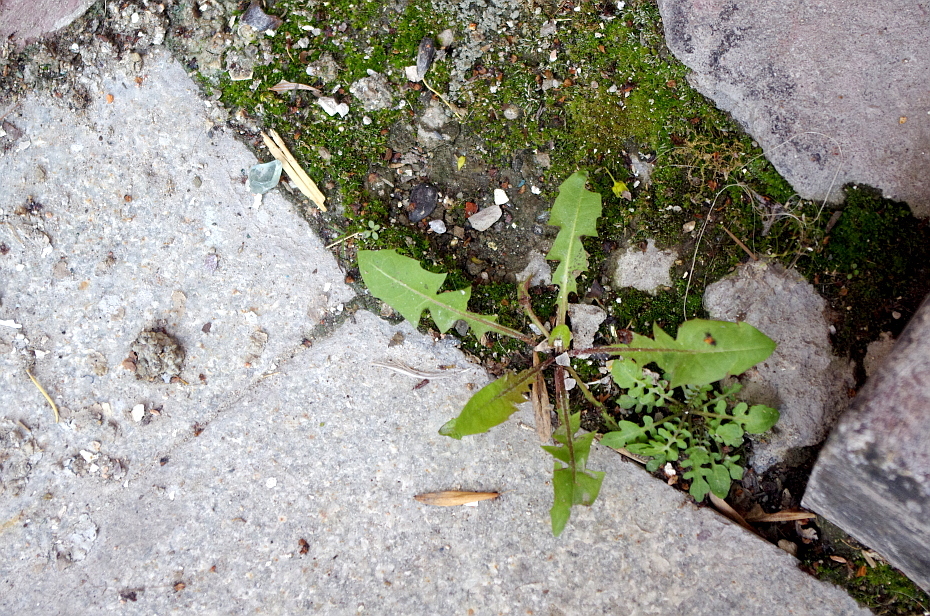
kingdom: Plantae
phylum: Tracheophyta
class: Magnoliopsida
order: Asterales
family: Asteraceae
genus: Taraxacum
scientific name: Taraxacum officinale
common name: Common dandelion
